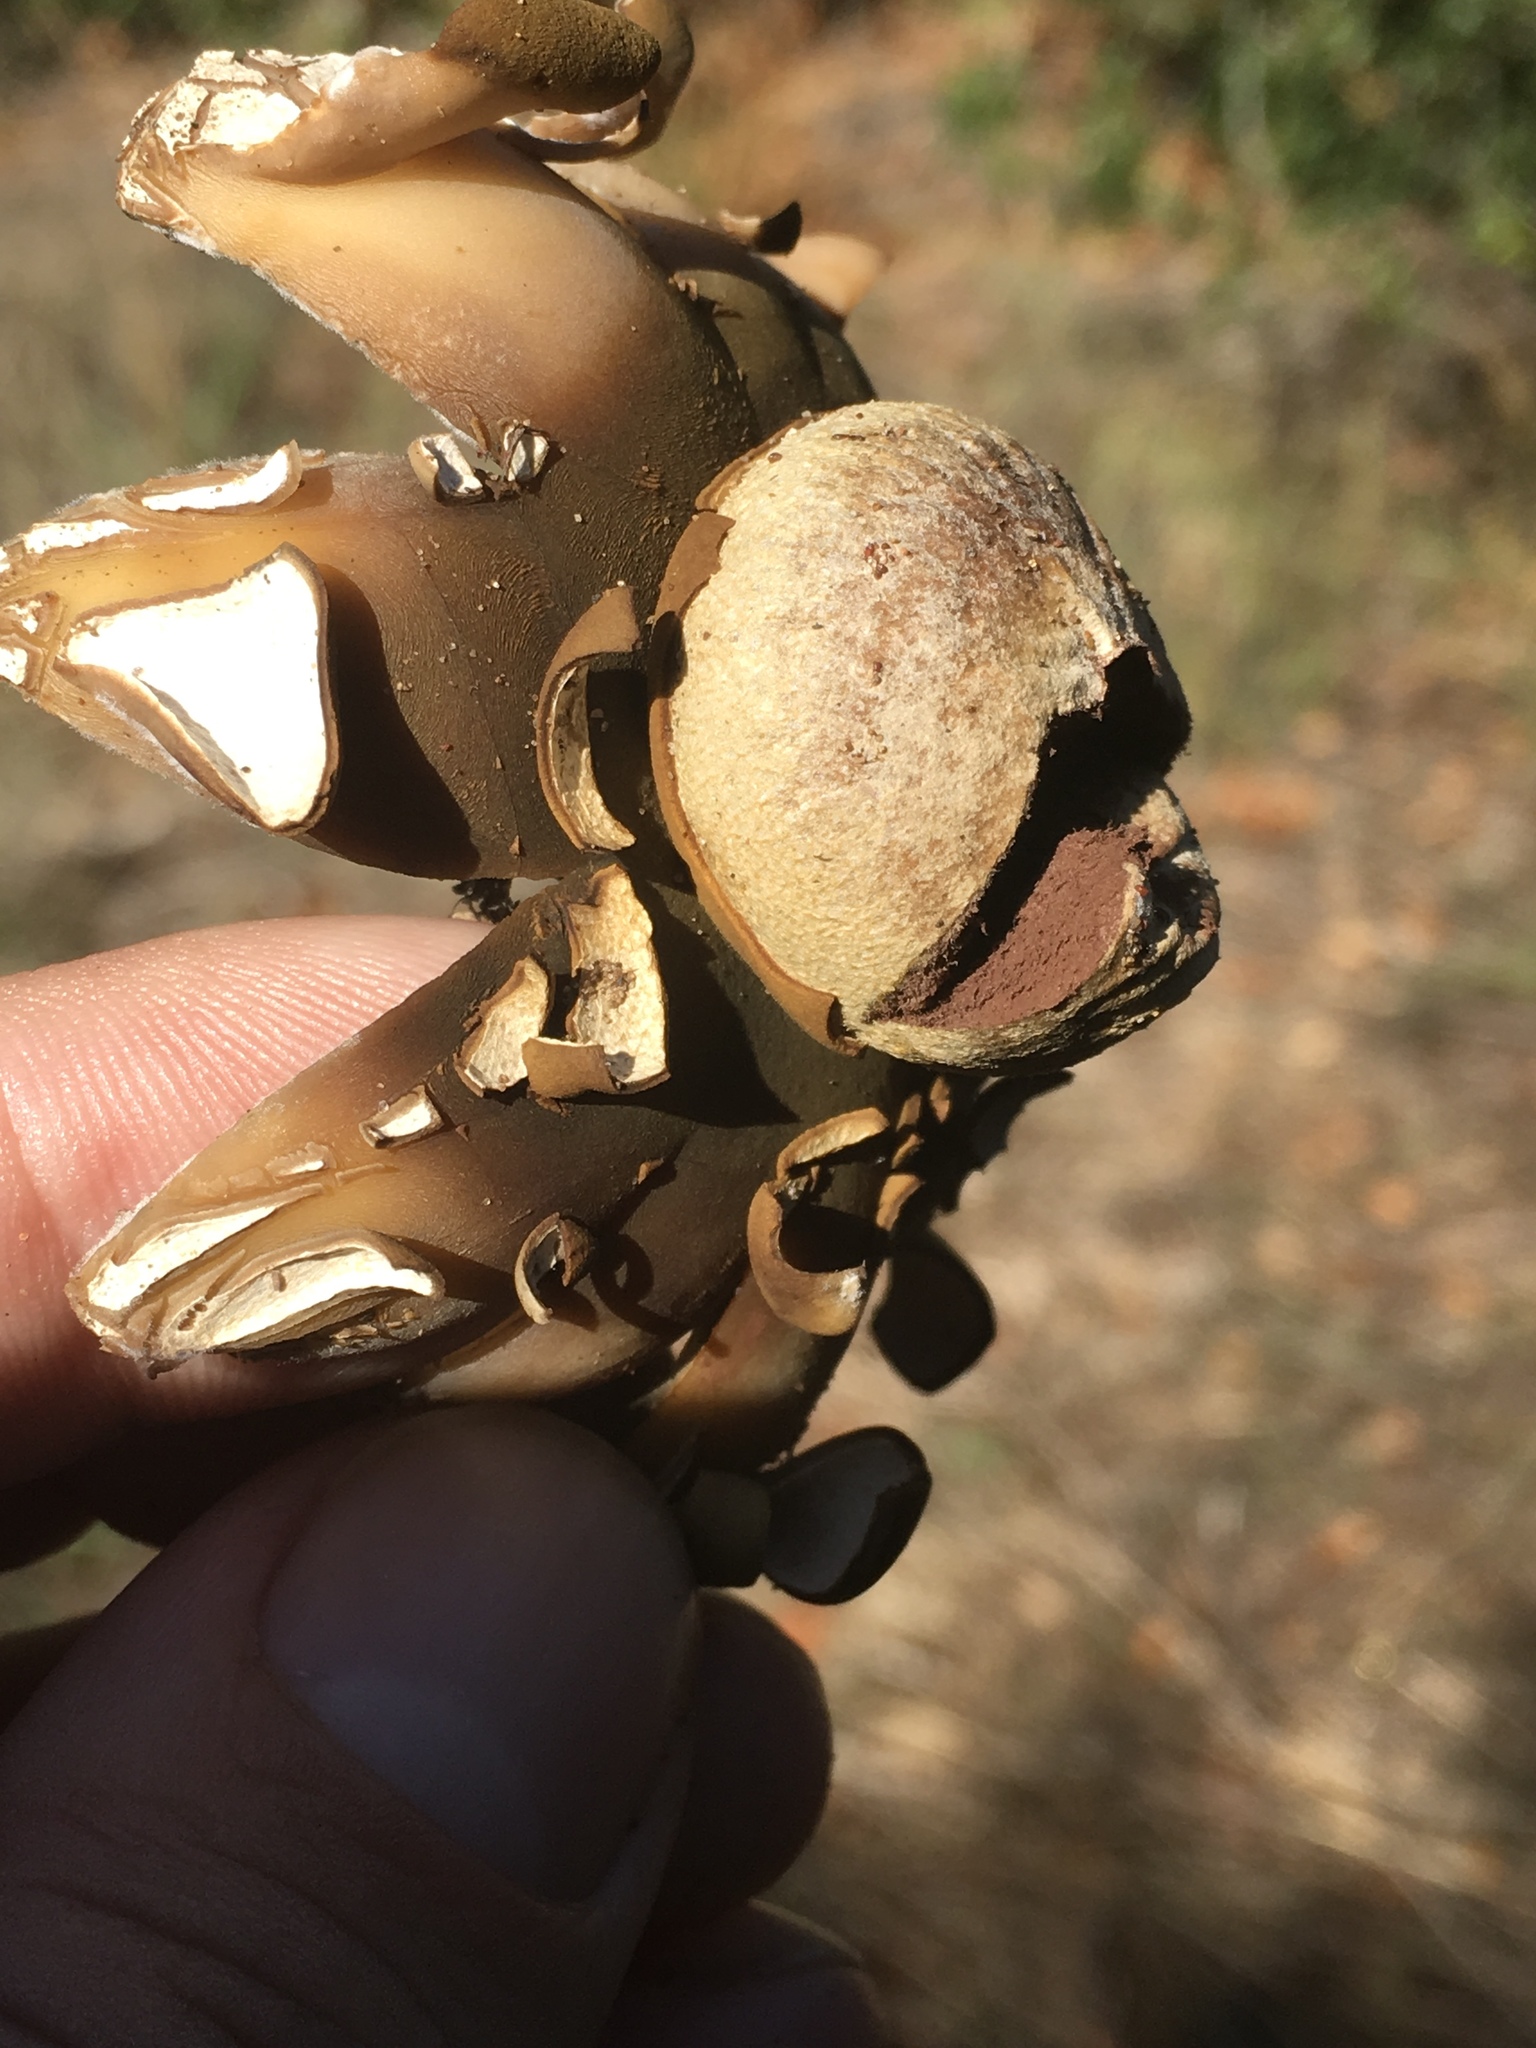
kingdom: Fungi
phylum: Basidiomycota
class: Agaricomycetes
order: Boletales
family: Diplocystidiaceae
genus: Astraeus
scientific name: Astraeus hygrometricus
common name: Barometer earthstar
